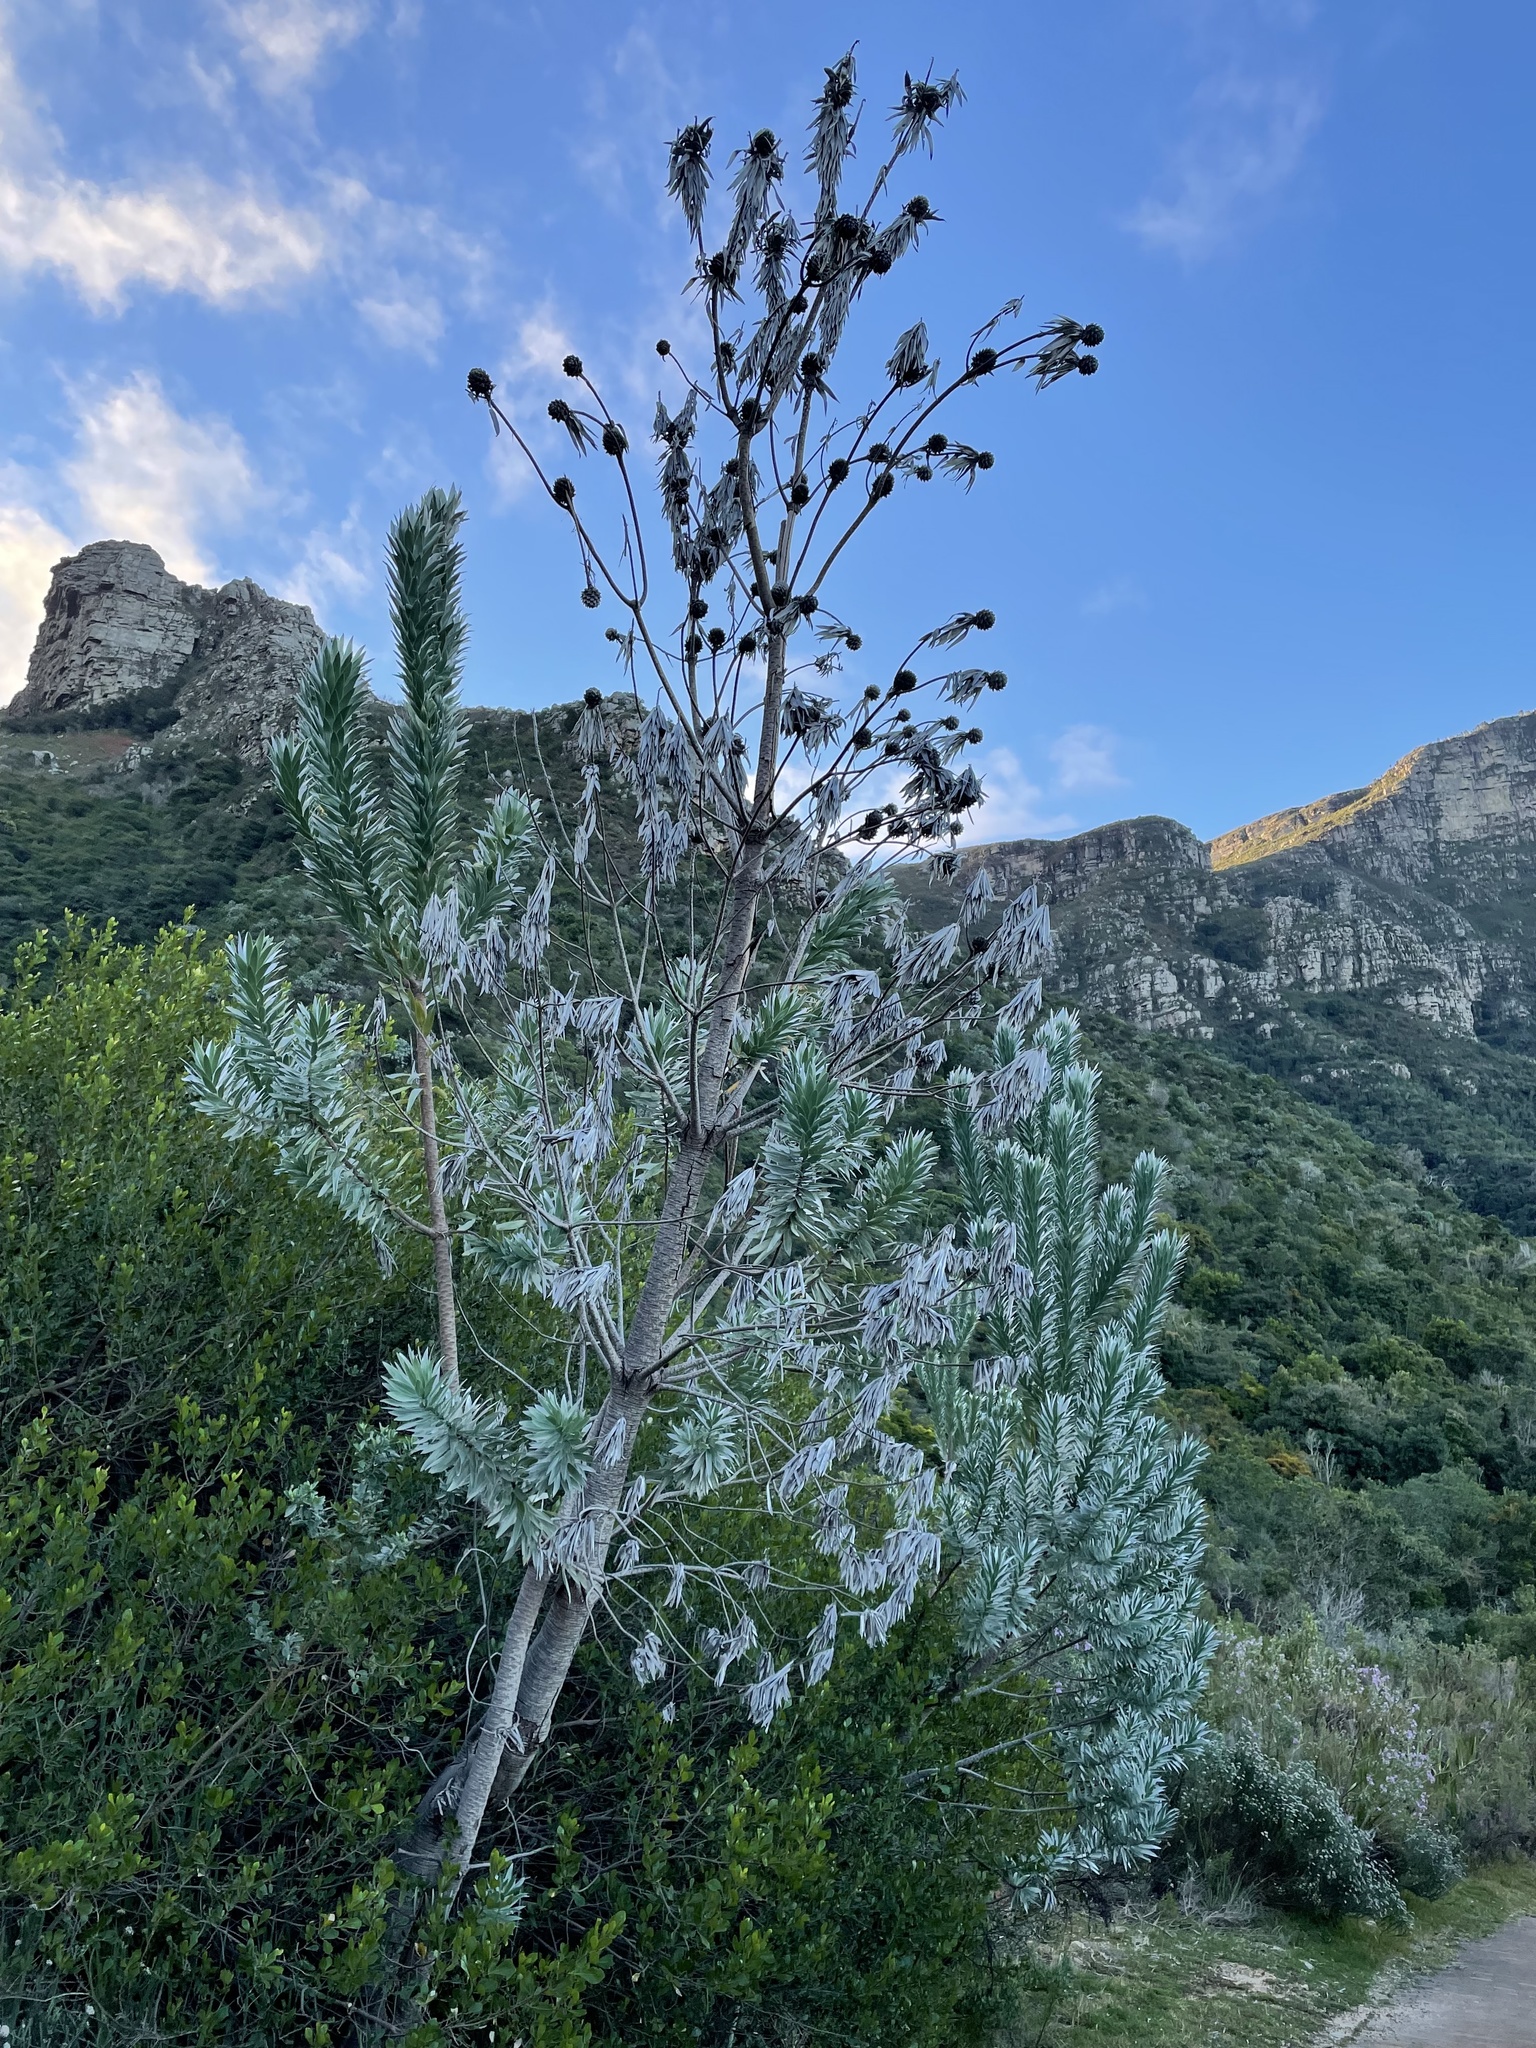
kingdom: Plantae
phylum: Tracheophyta
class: Magnoliopsida
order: Proteales
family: Proteaceae
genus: Leucadendron
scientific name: Leucadendron argenteum
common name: Cape silver tree
